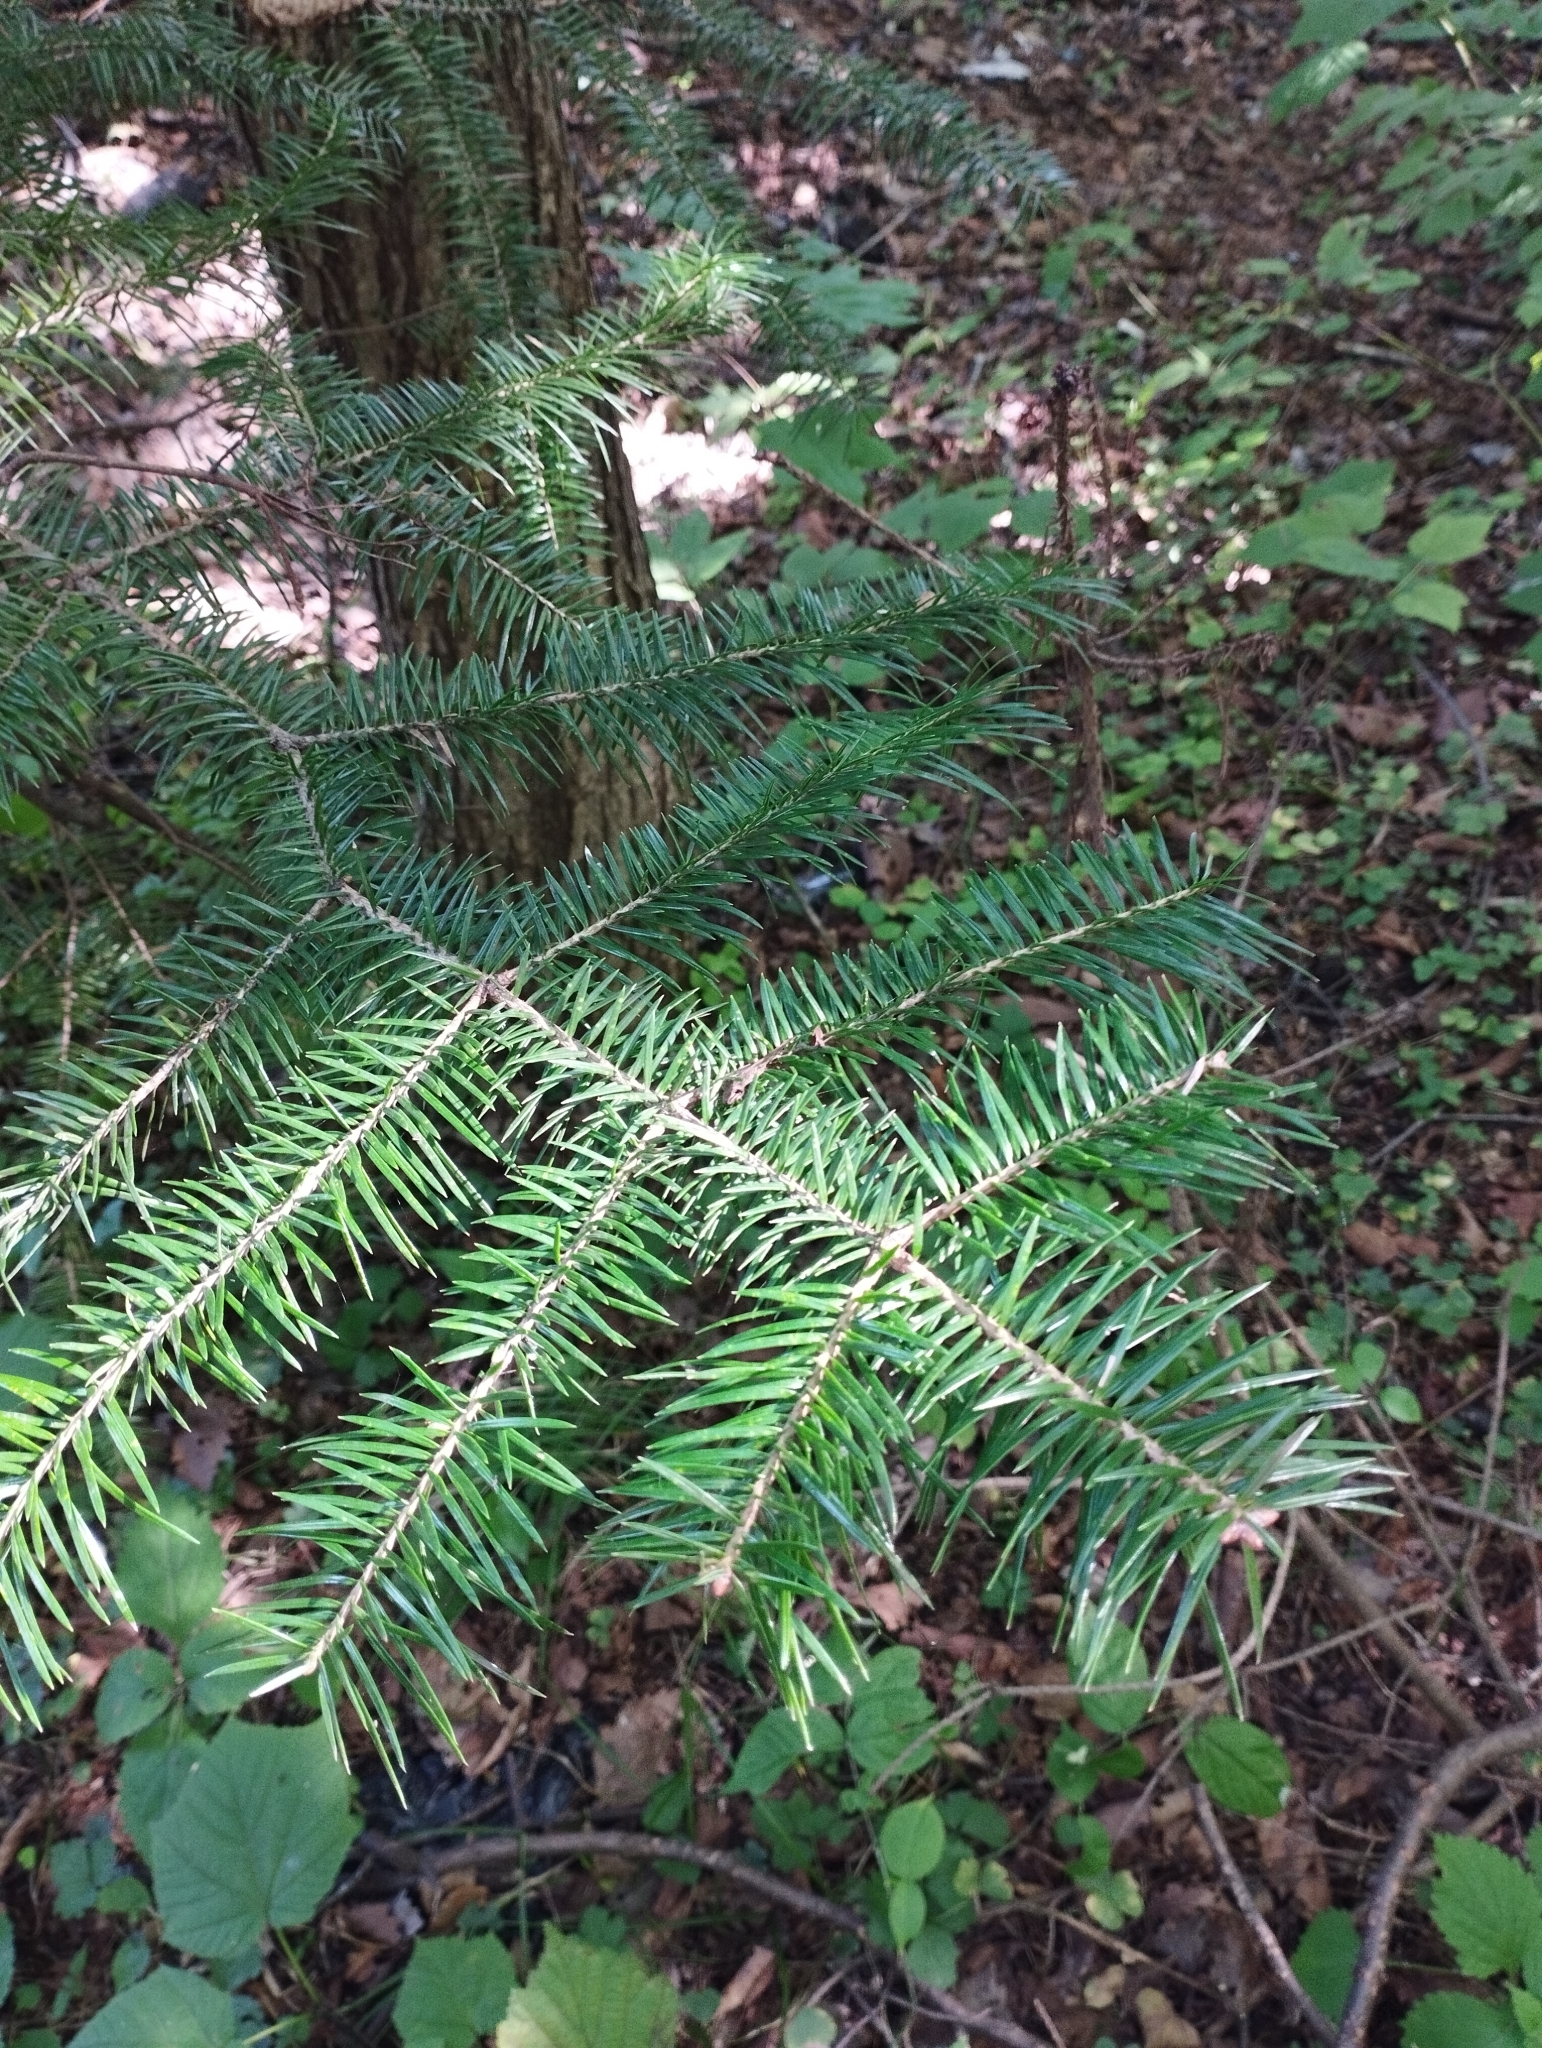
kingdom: Plantae
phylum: Tracheophyta
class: Pinopsida
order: Pinales
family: Pinaceae
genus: Abies
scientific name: Abies holophylla
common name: Manchurian fir
